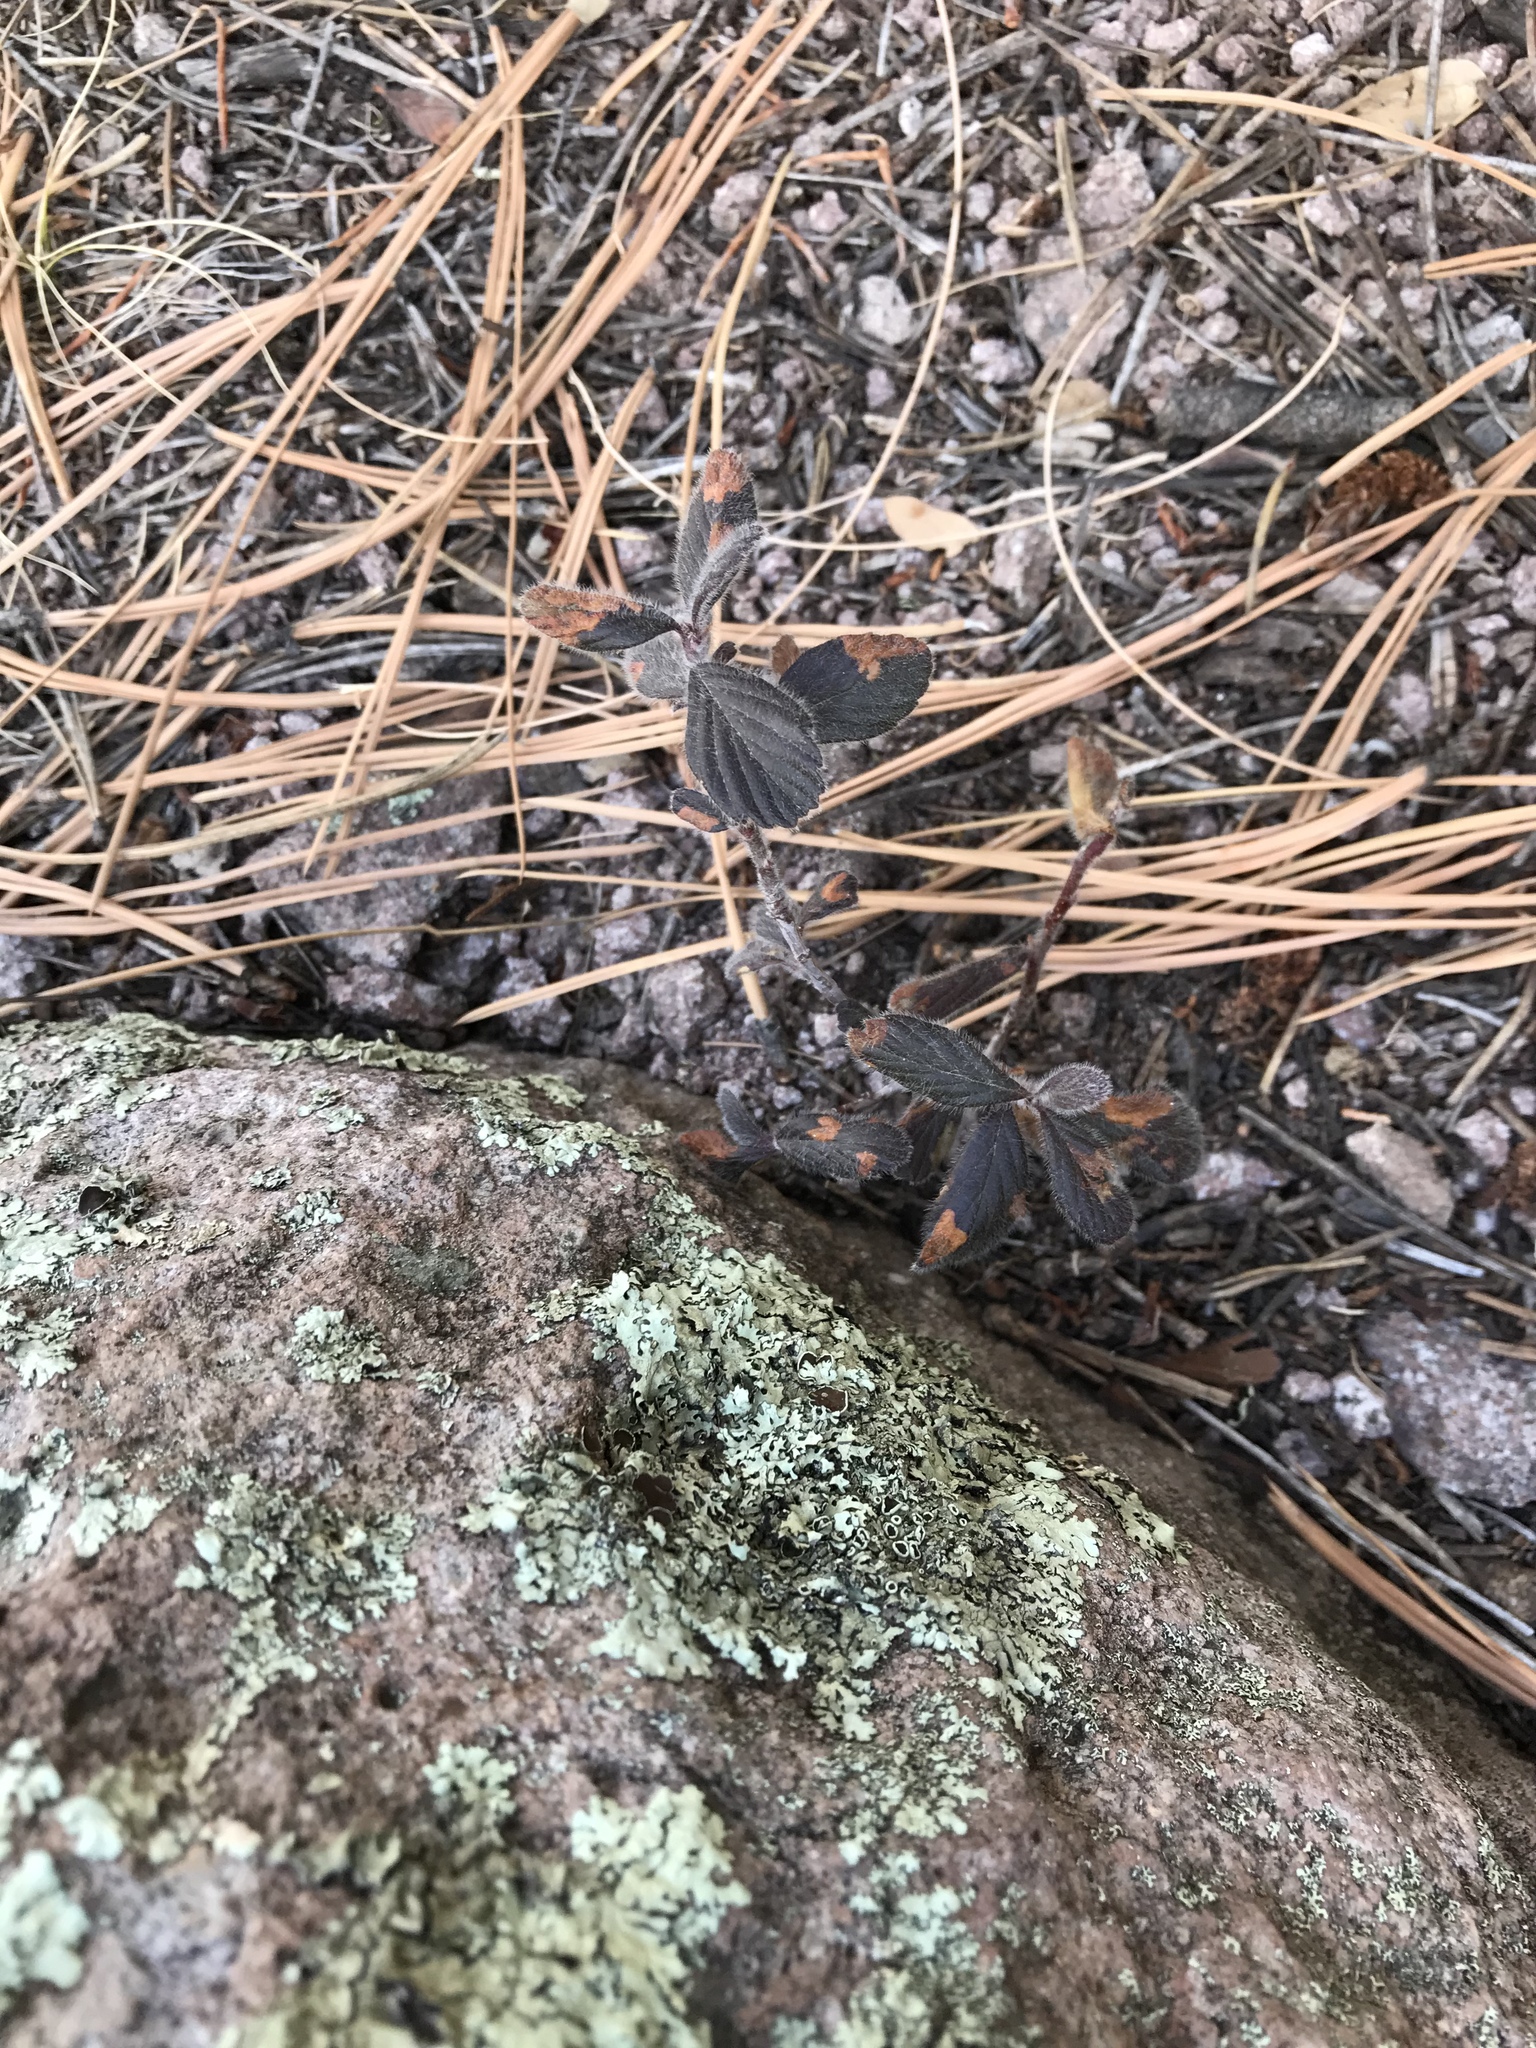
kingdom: Plantae
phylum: Tracheophyta
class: Magnoliopsida
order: Rosales
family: Rosaceae
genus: Cercocarpus
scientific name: Cercocarpus montanus
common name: Alder-leaf cercocarpus
